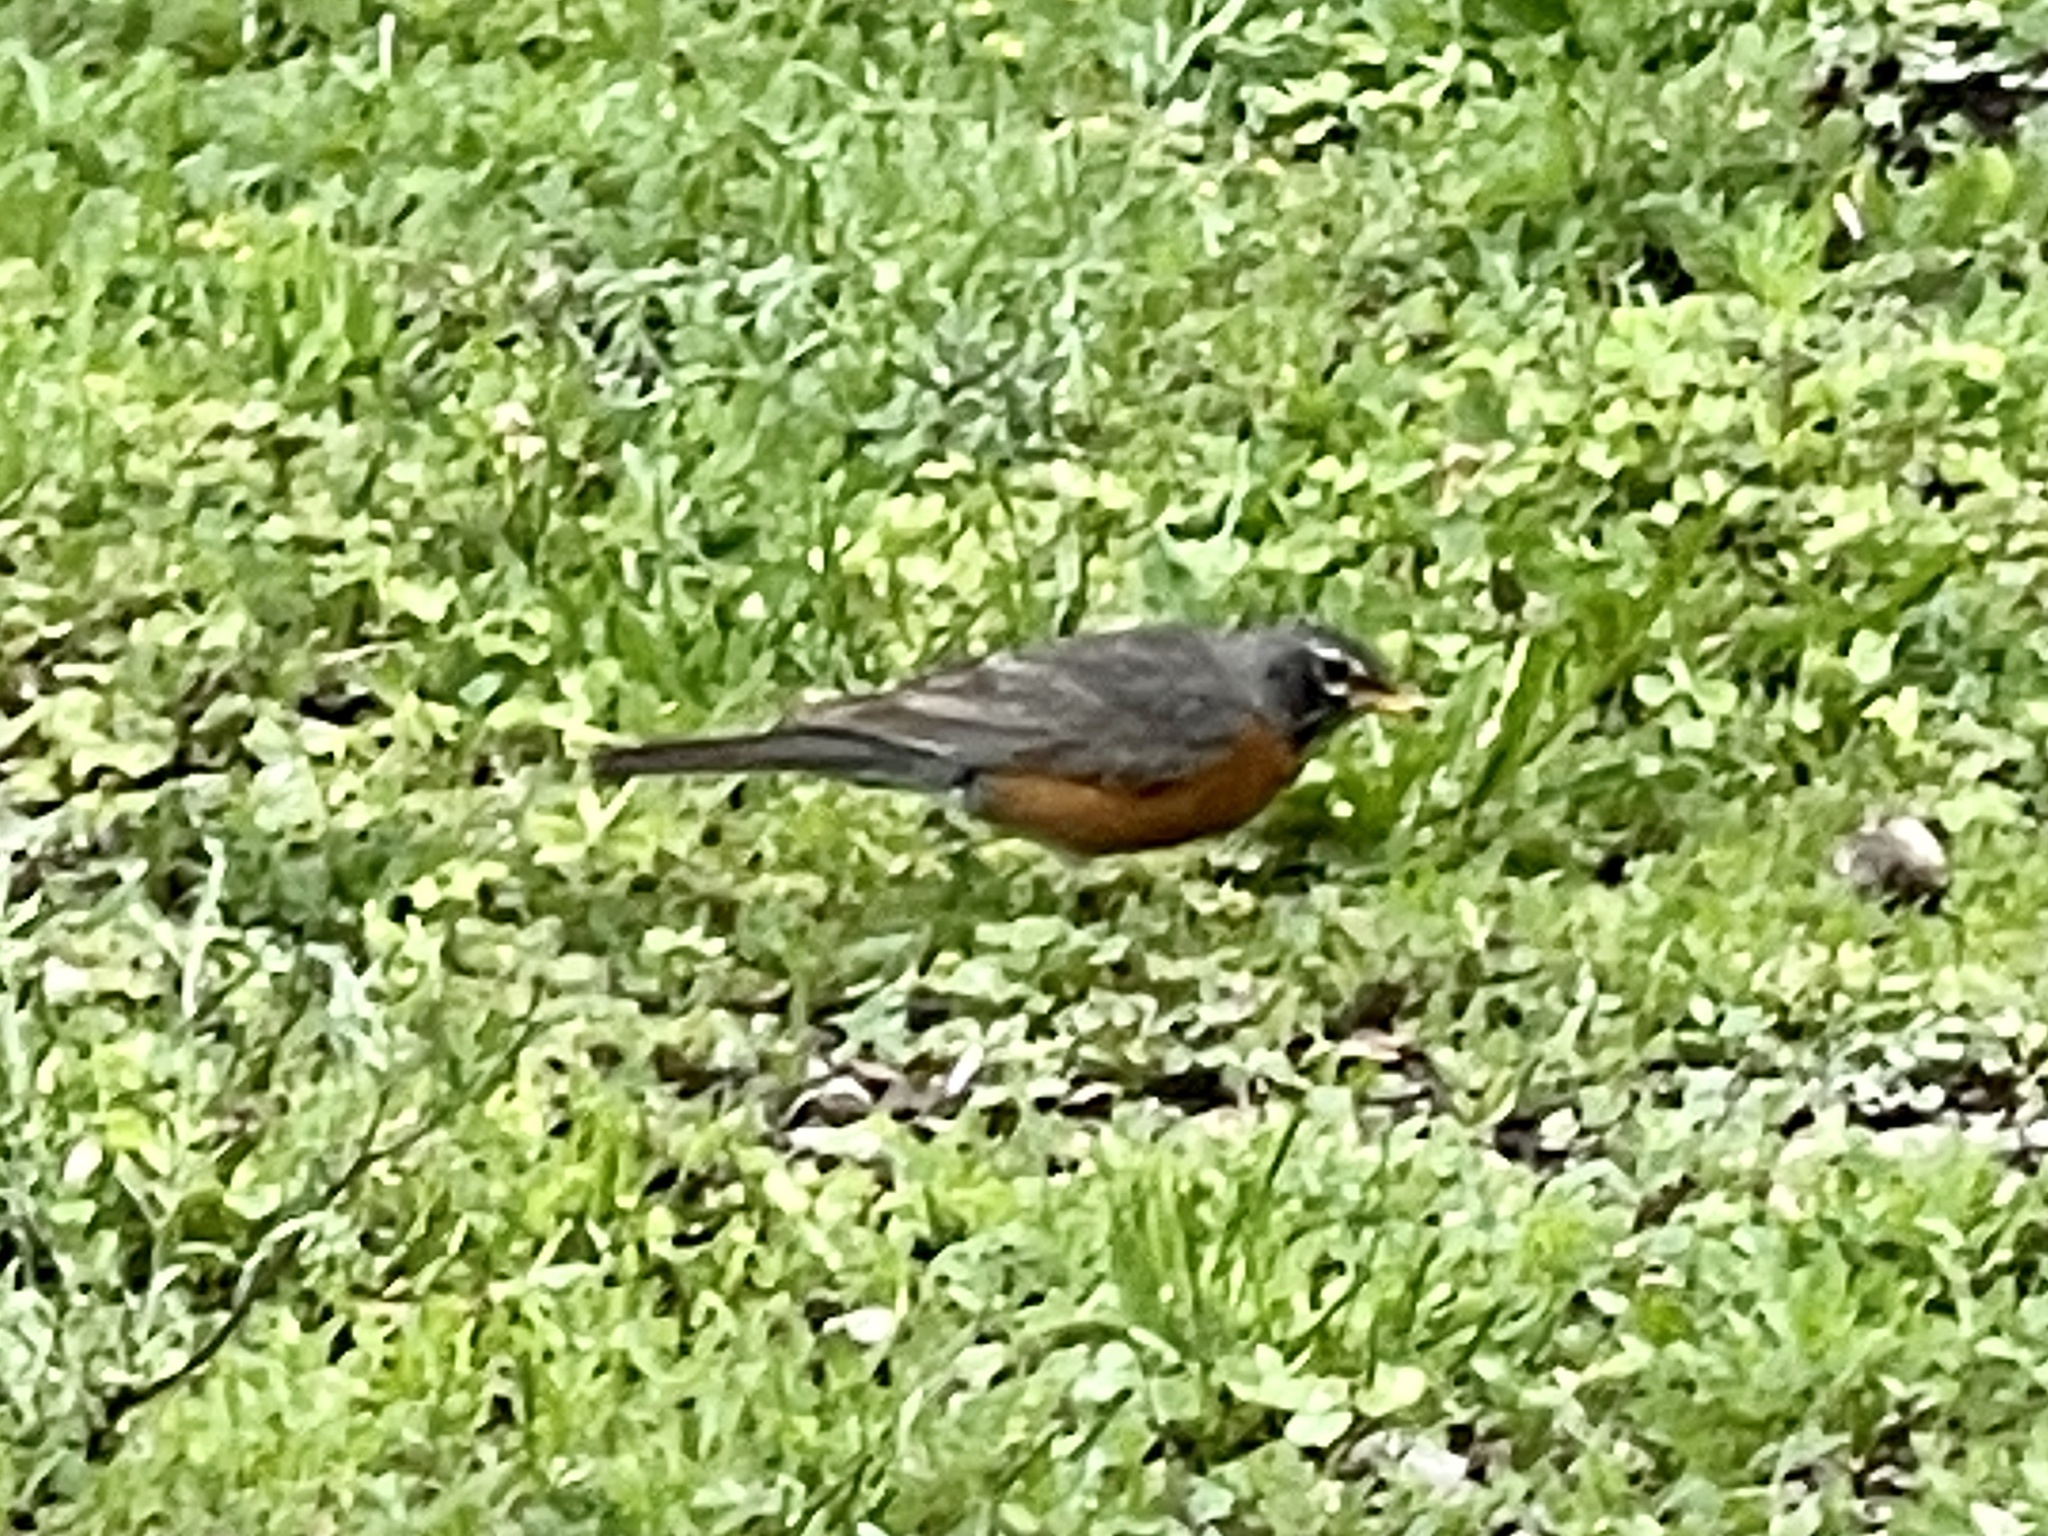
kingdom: Animalia
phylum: Chordata
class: Aves
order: Passeriformes
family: Turdidae
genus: Turdus
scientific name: Turdus migratorius
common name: American robin
